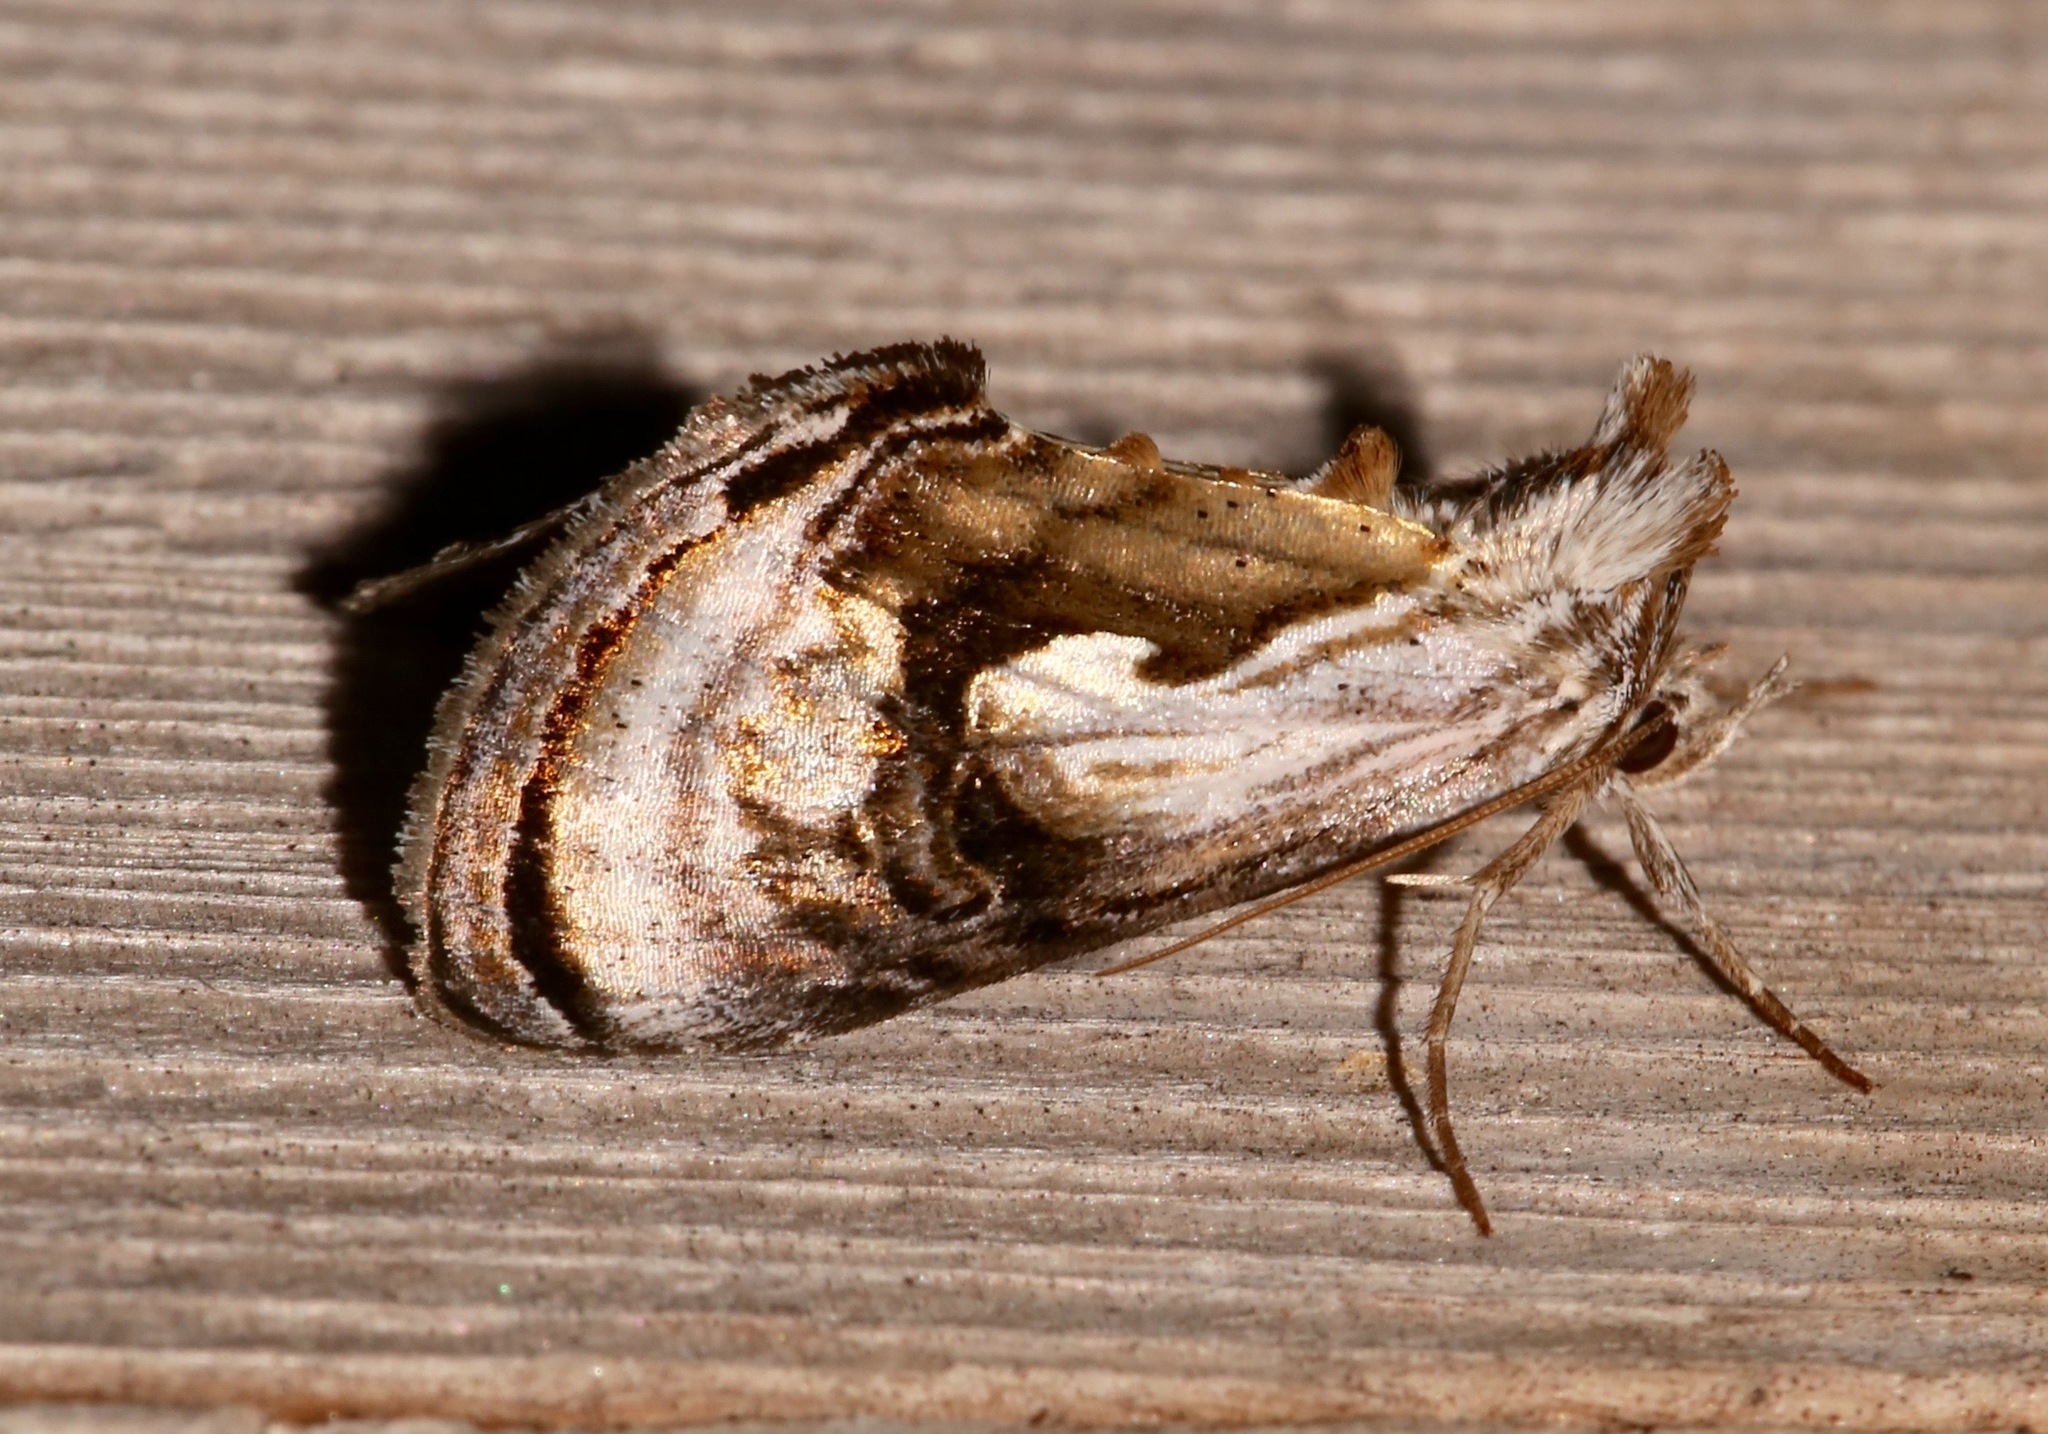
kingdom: Animalia
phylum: Arthropoda
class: Insecta
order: Lepidoptera
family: Noctuidae
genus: Chrysanympha
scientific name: Chrysanympha formosa
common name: Formosa looper moth
